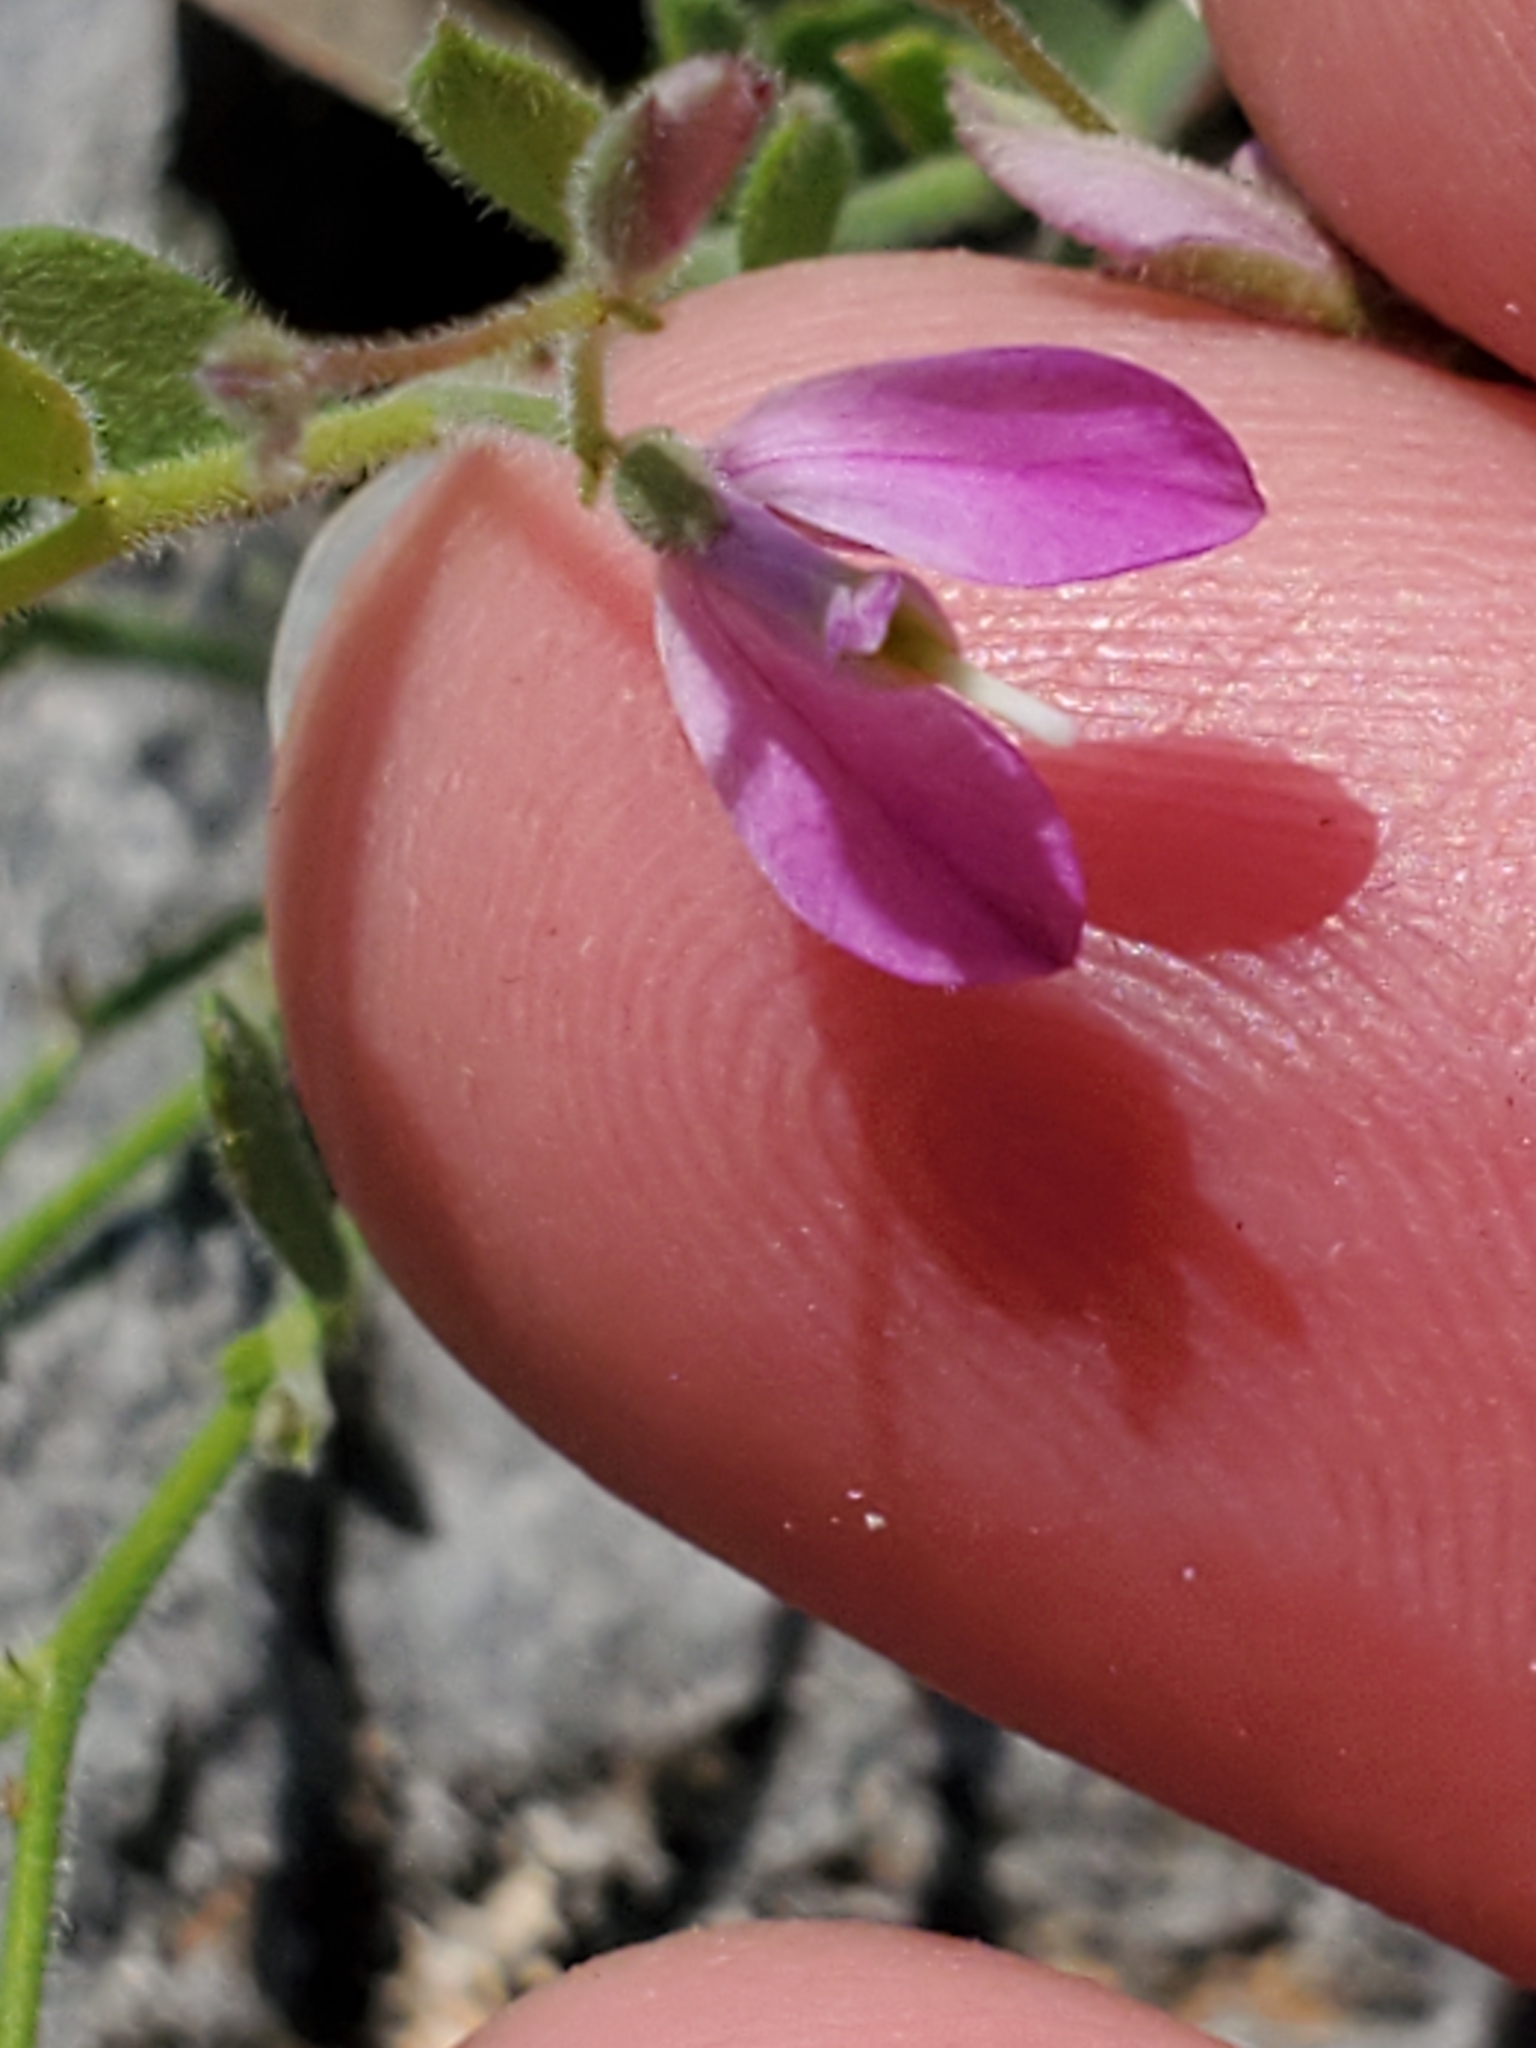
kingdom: Plantae
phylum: Tracheophyta
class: Magnoliopsida
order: Fabales
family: Polygalaceae
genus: Rhinotropis
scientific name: Rhinotropis lindheimeri
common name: Shrubby milkwort
